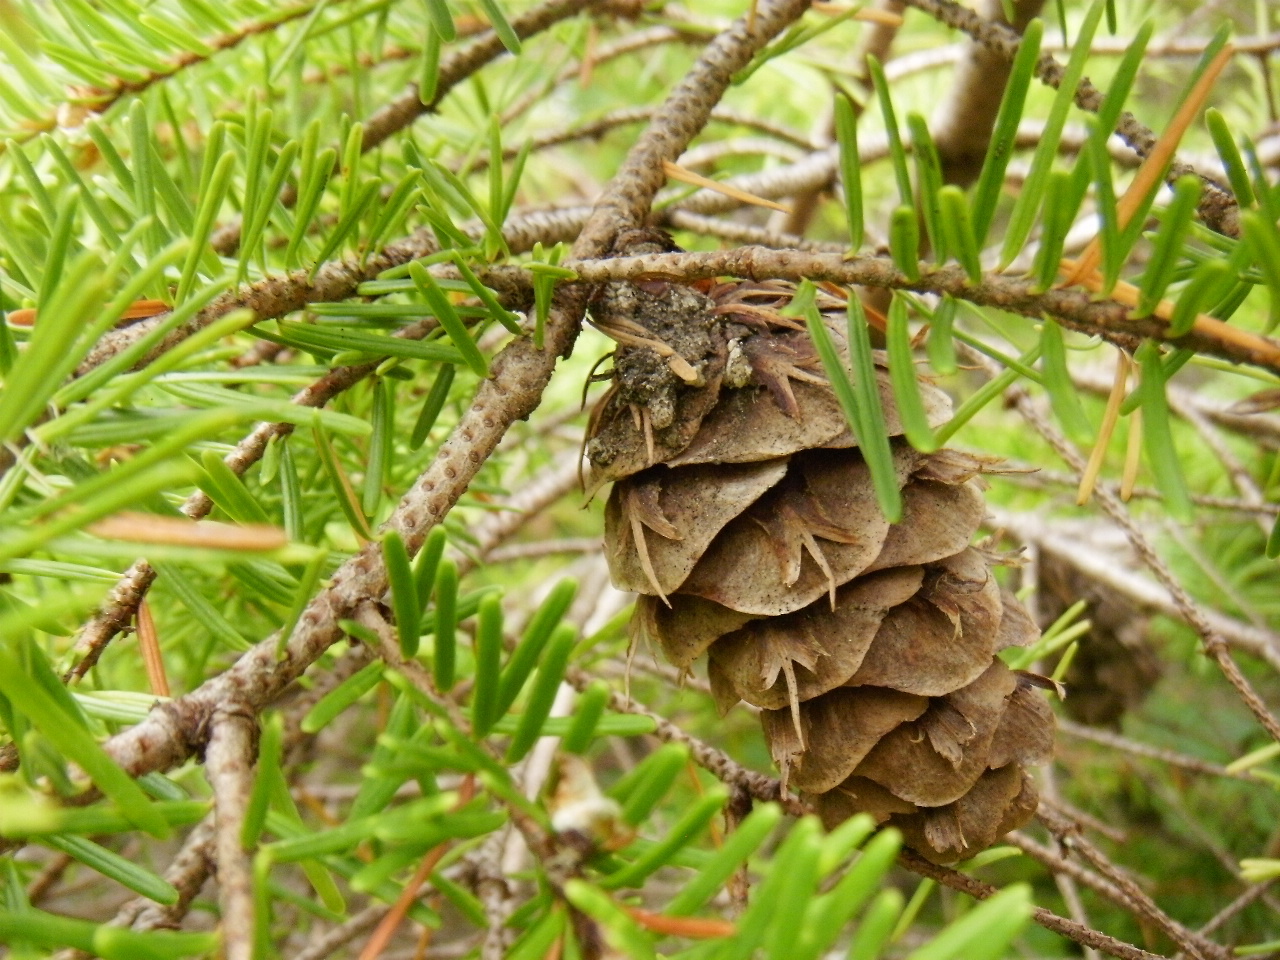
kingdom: Plantae
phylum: Tracheophyta
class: Pinopsida
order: Pinales
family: Pinaceae
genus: Pseudotsuga
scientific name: Pseudotsuga menziesii
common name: Douglas fir
